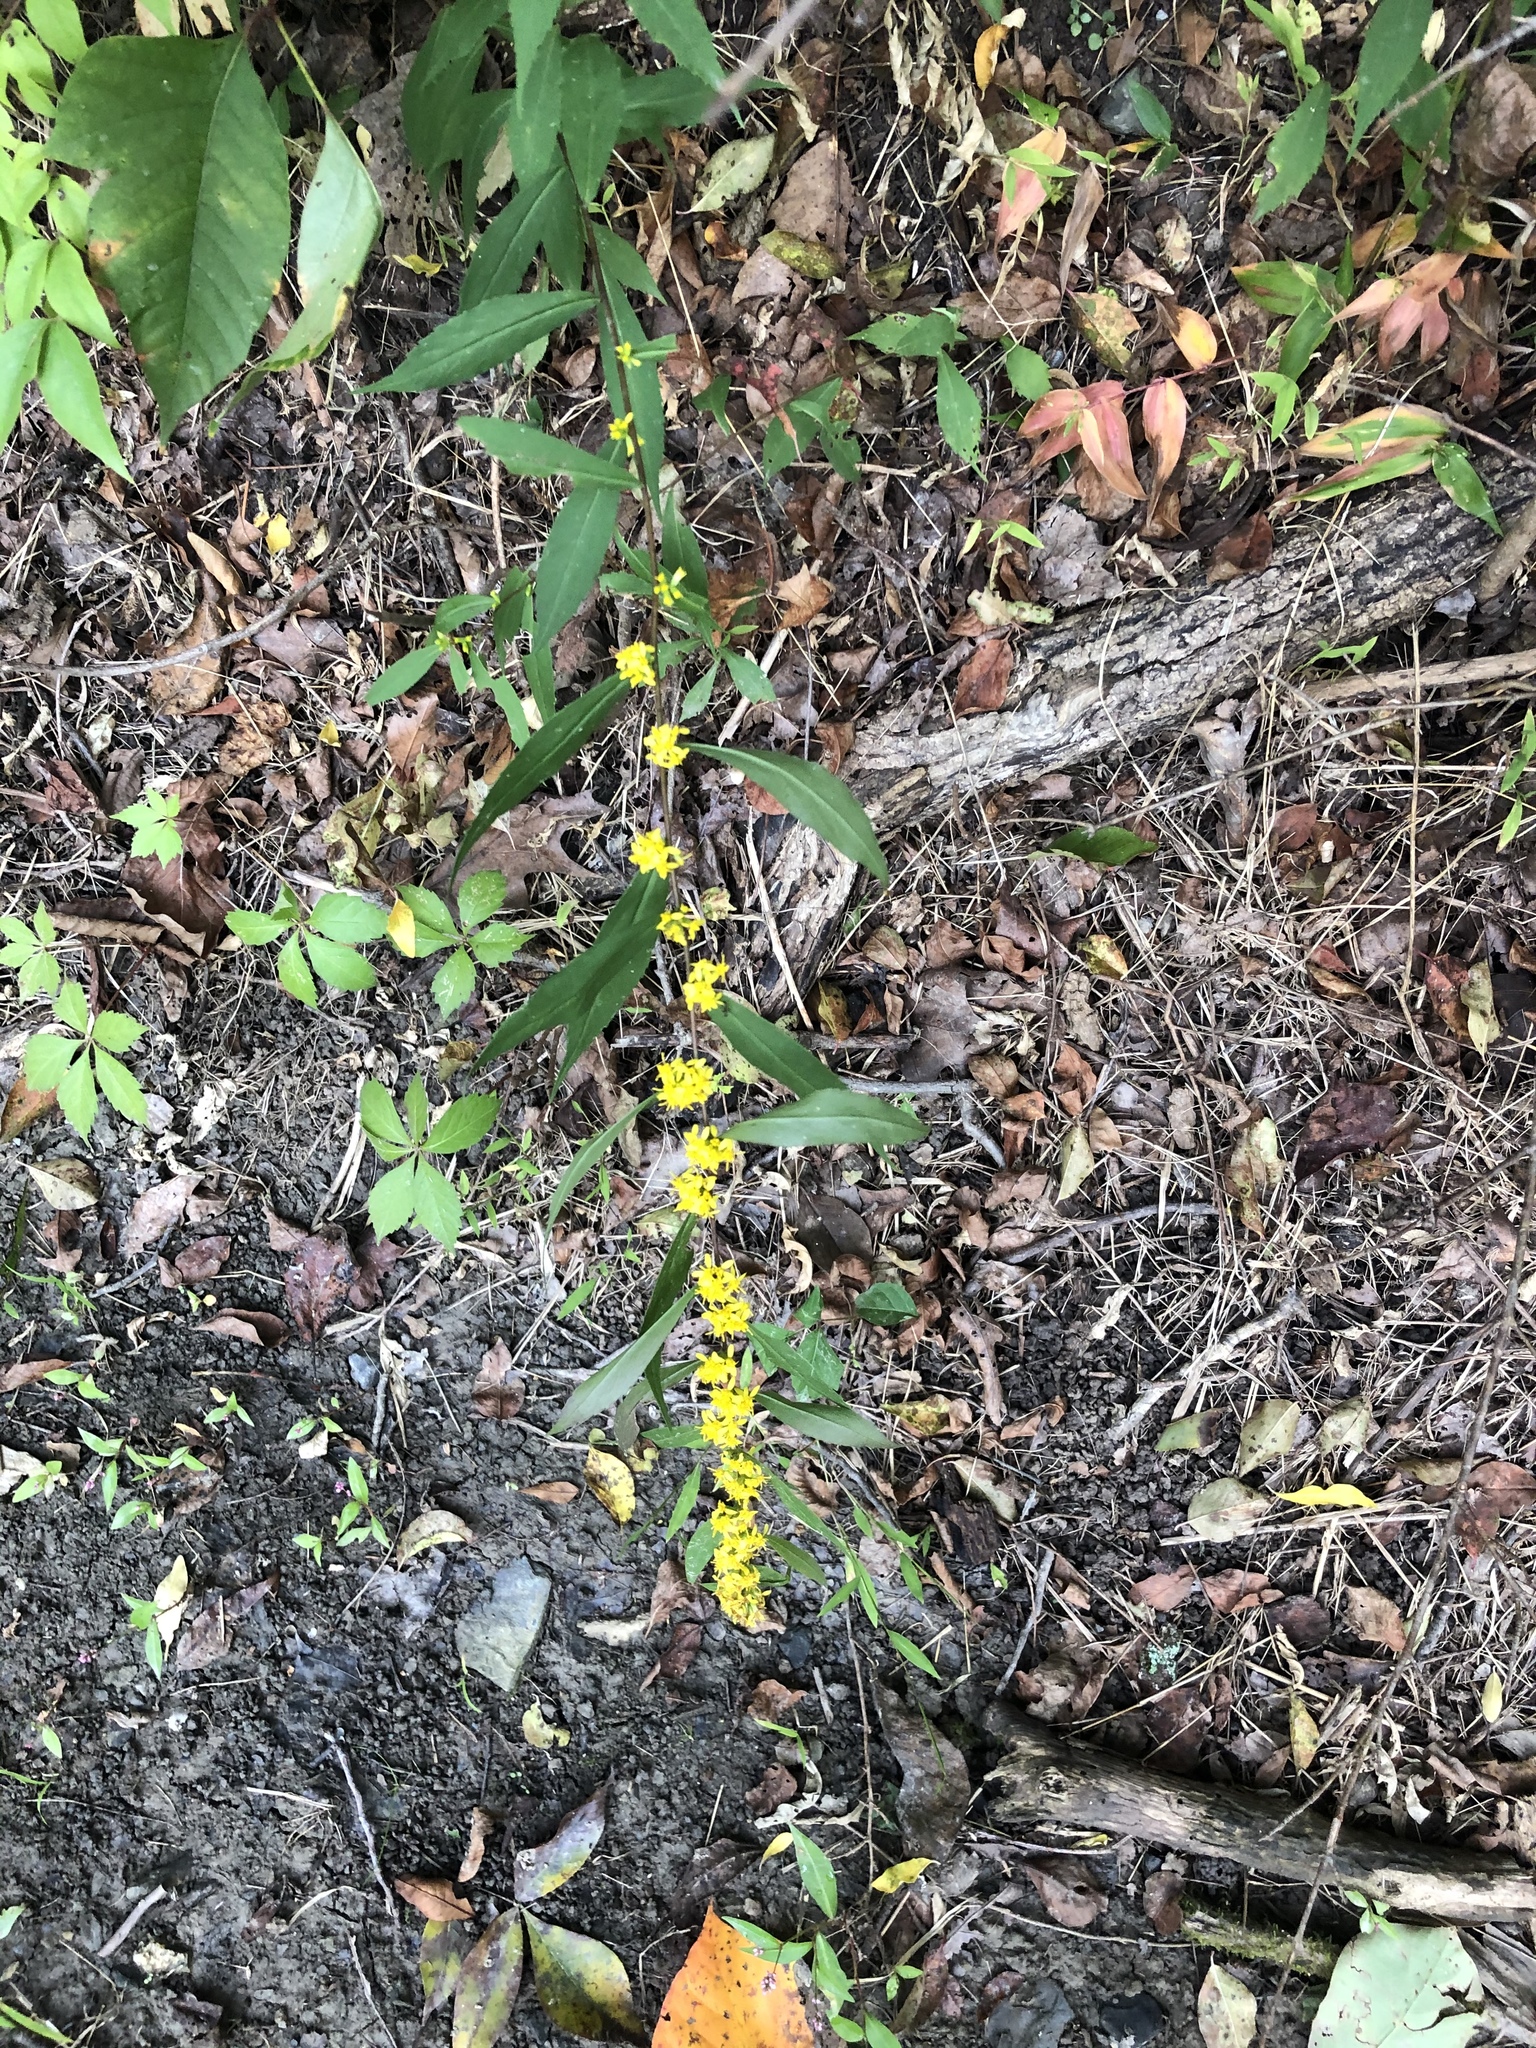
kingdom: Plantae
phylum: Tracheophyta
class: Magnoliopsida
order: Asterales
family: Asteraceae
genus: Solidago
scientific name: Solidago caesia
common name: Woodland goldenrod
